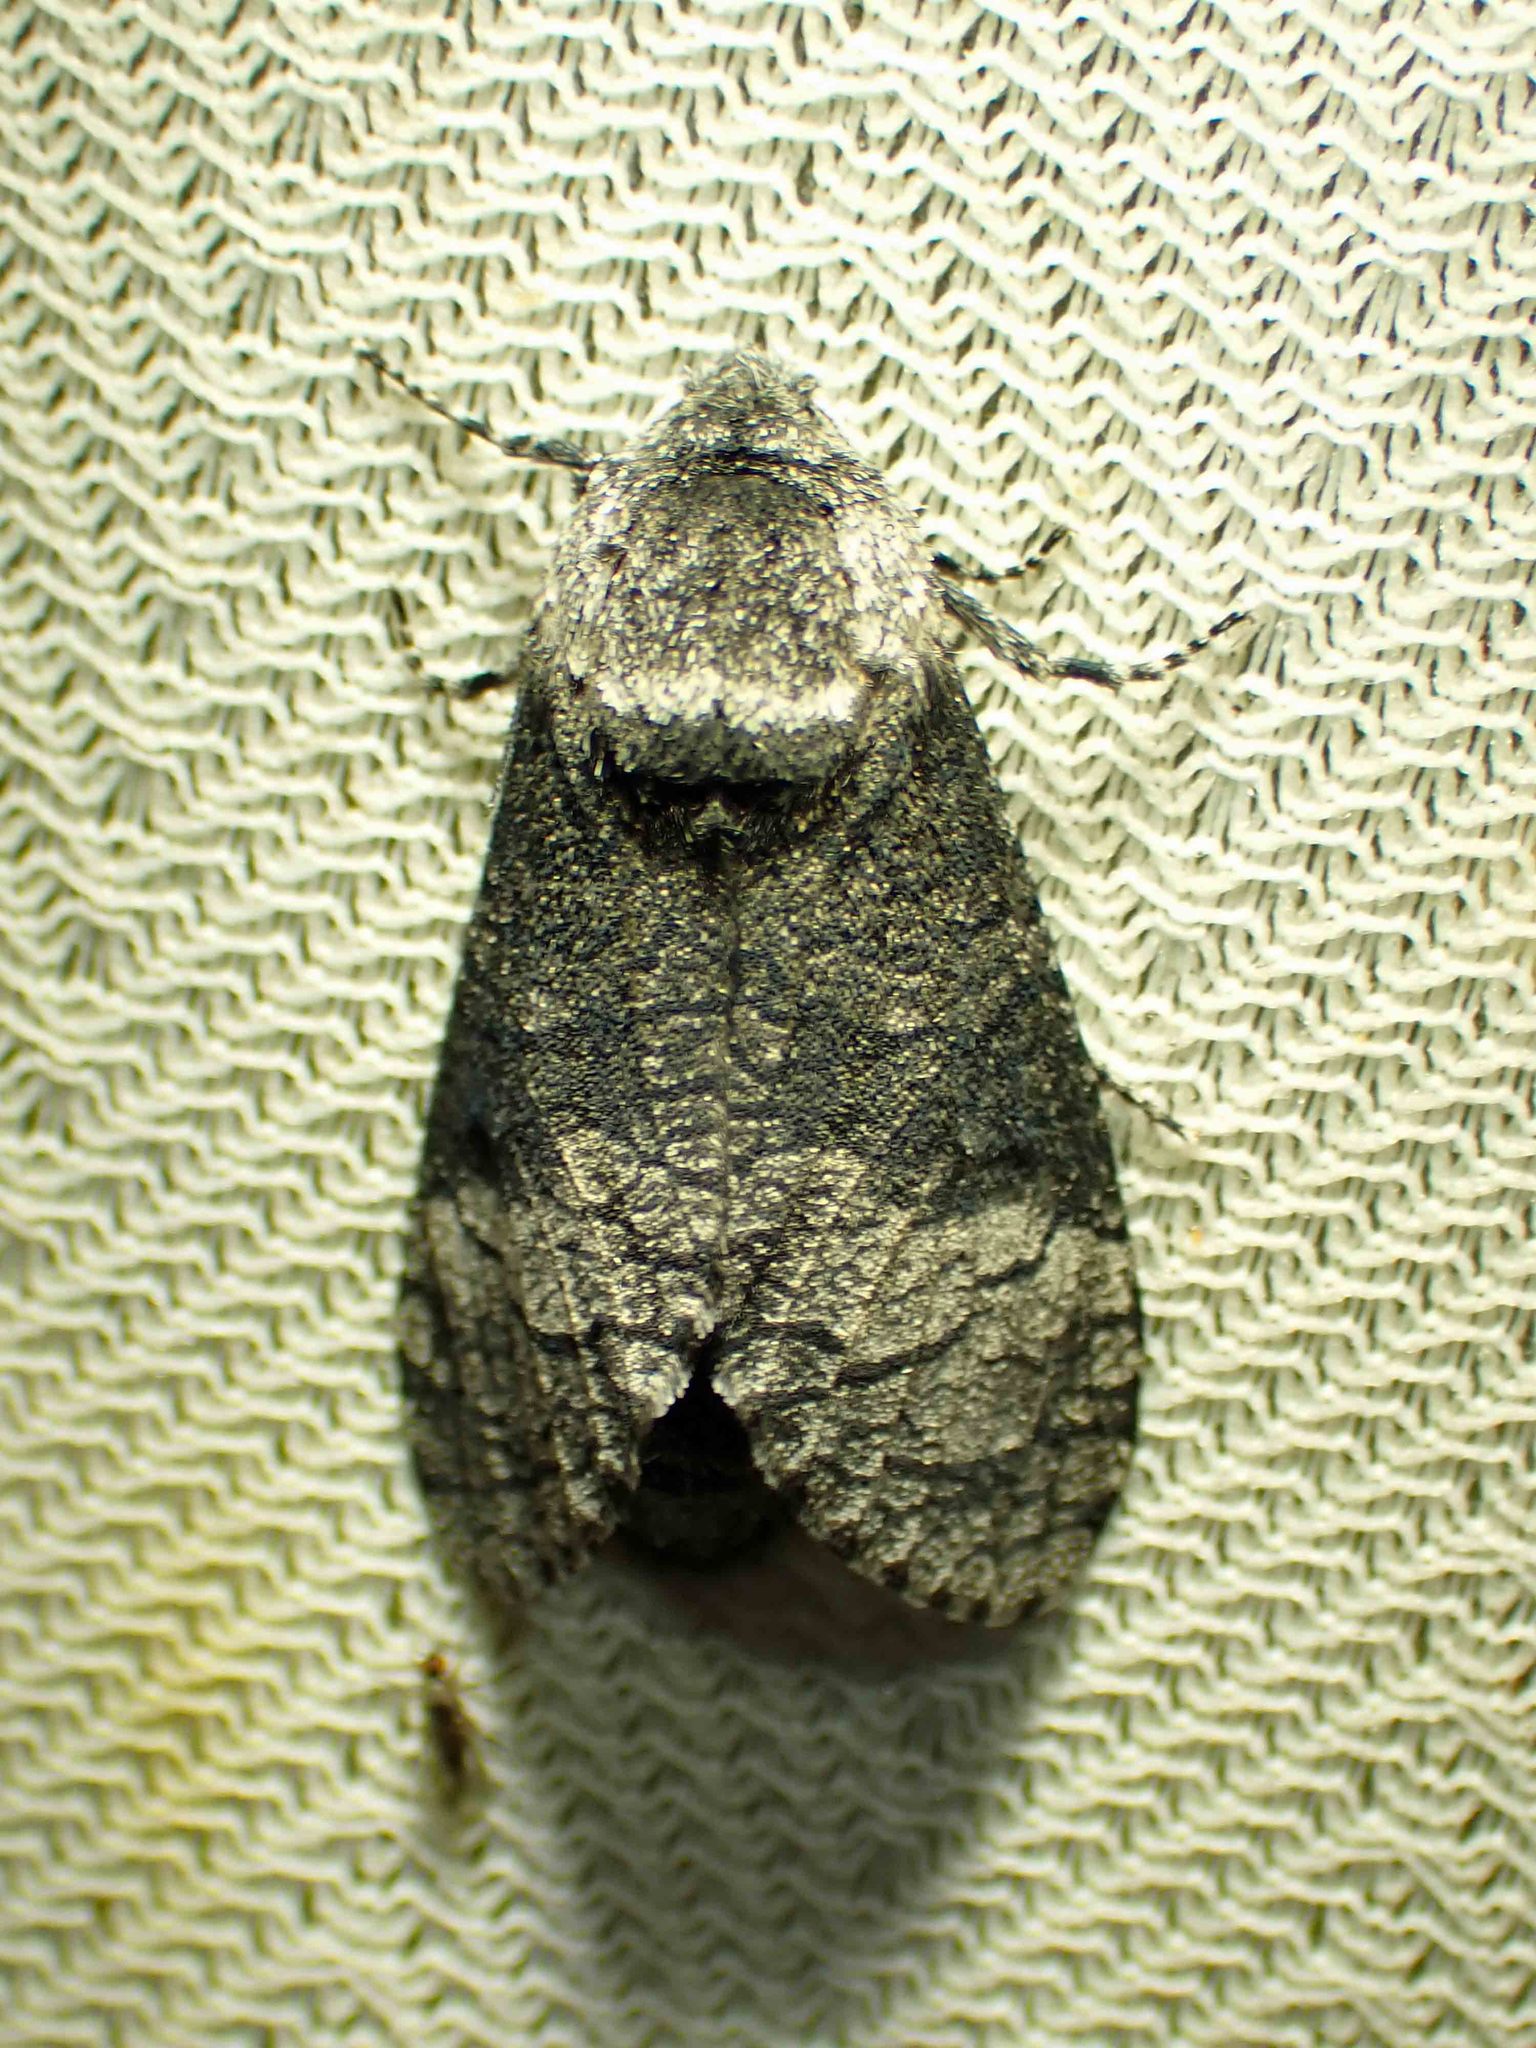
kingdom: Animalia
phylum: Arthropoda
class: Insecta
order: Lepidoptera
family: Cossidae
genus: Acossus
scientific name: Acossus centerensis
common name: Poplar carpenterworm moth
